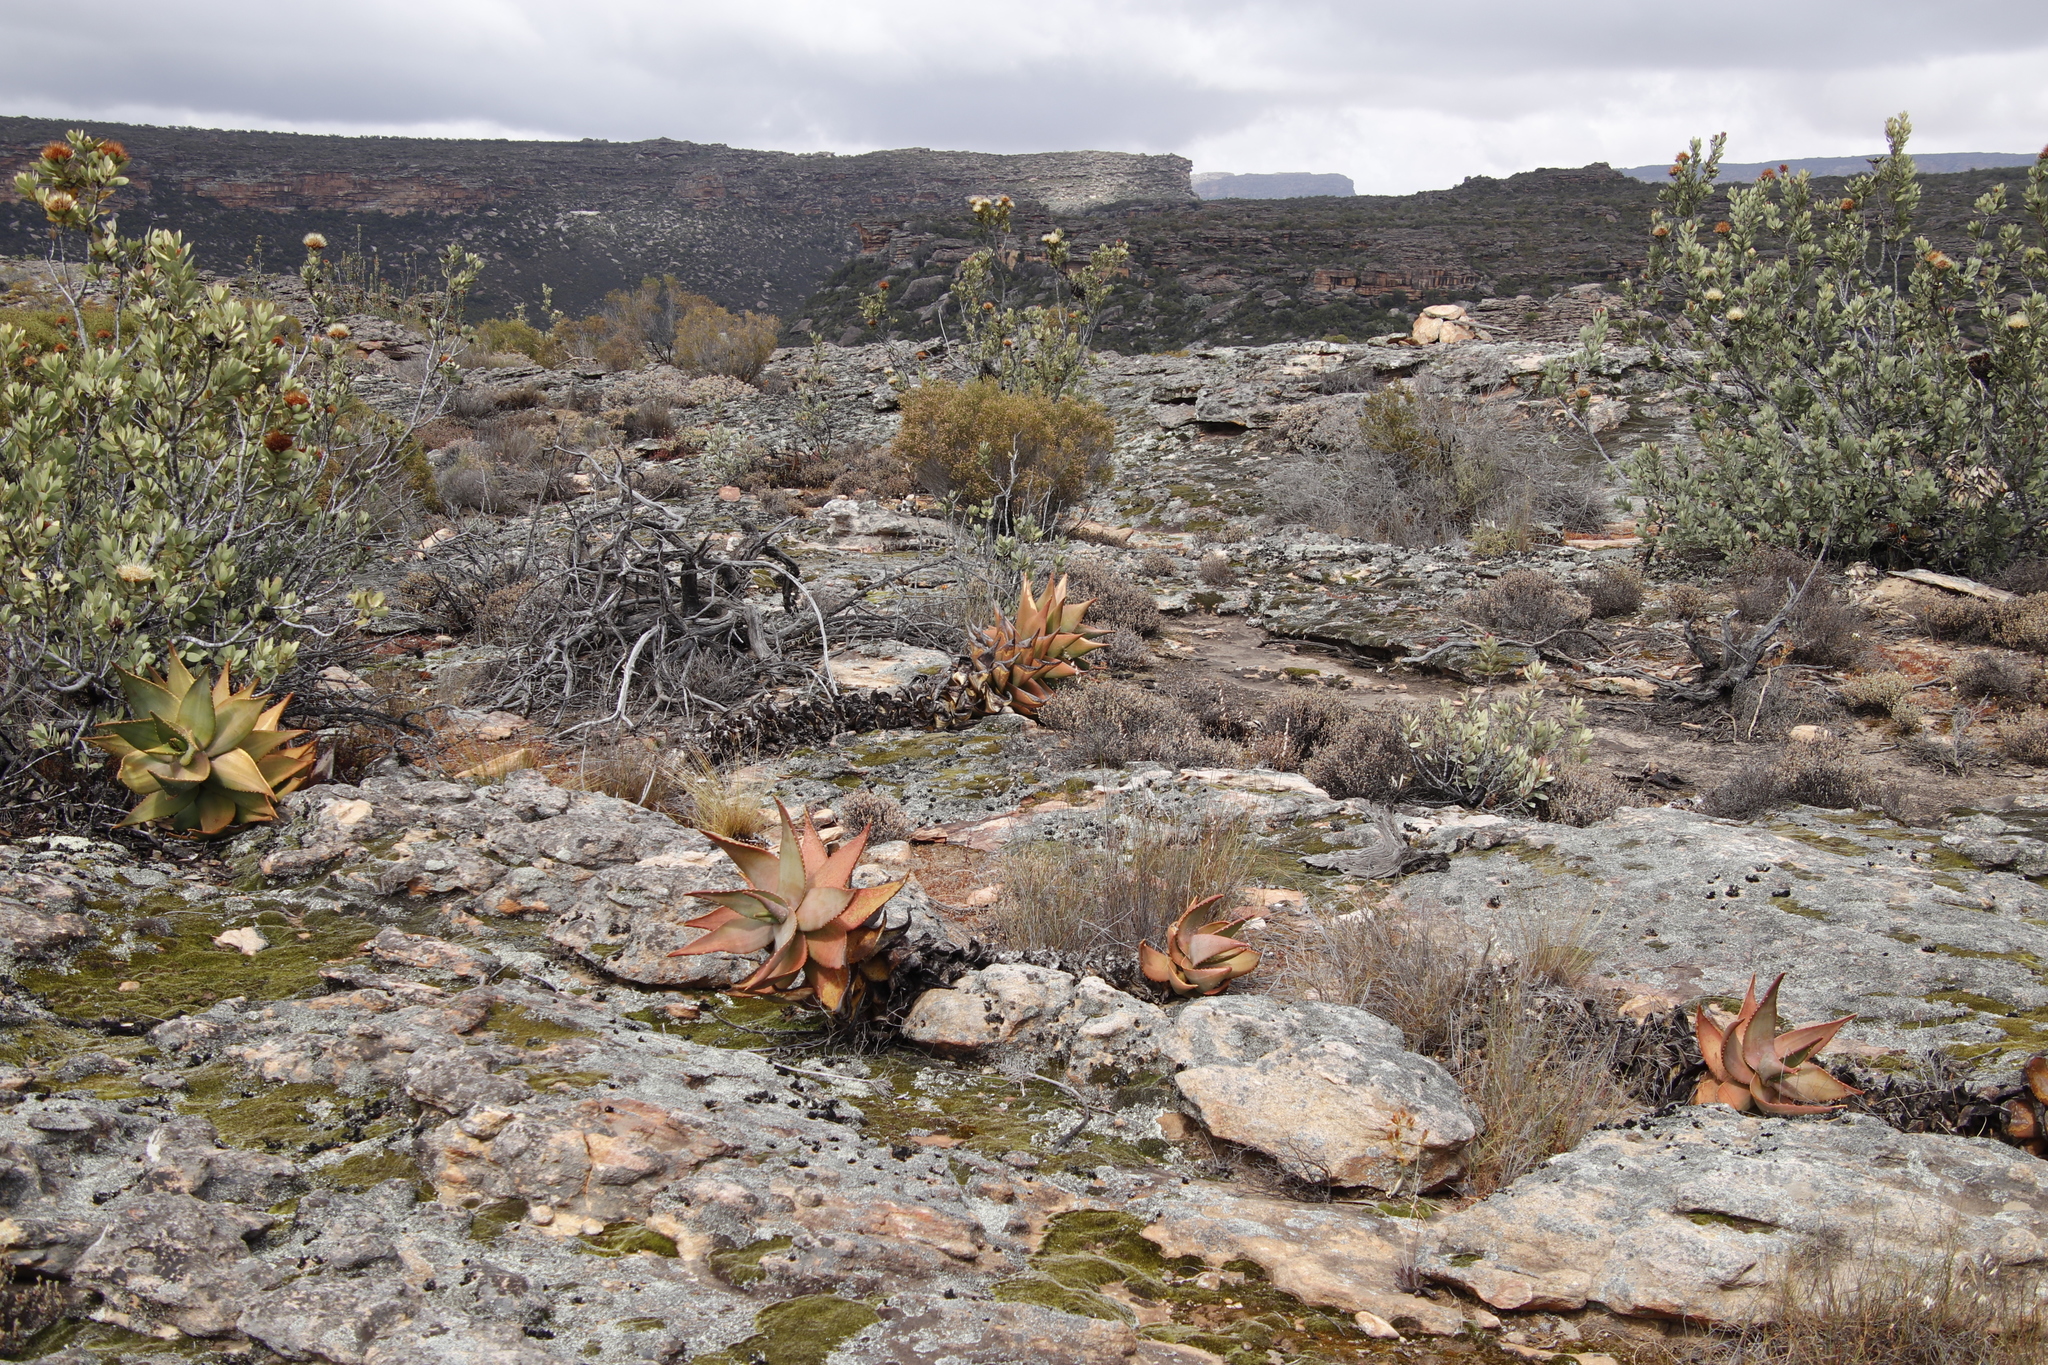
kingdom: Plantae
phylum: Tracheophyta
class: Liliopsida
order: Asparagales
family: Asphodelaceae
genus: Aloe
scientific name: Aloe perfoliata
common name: Mitra aloe
